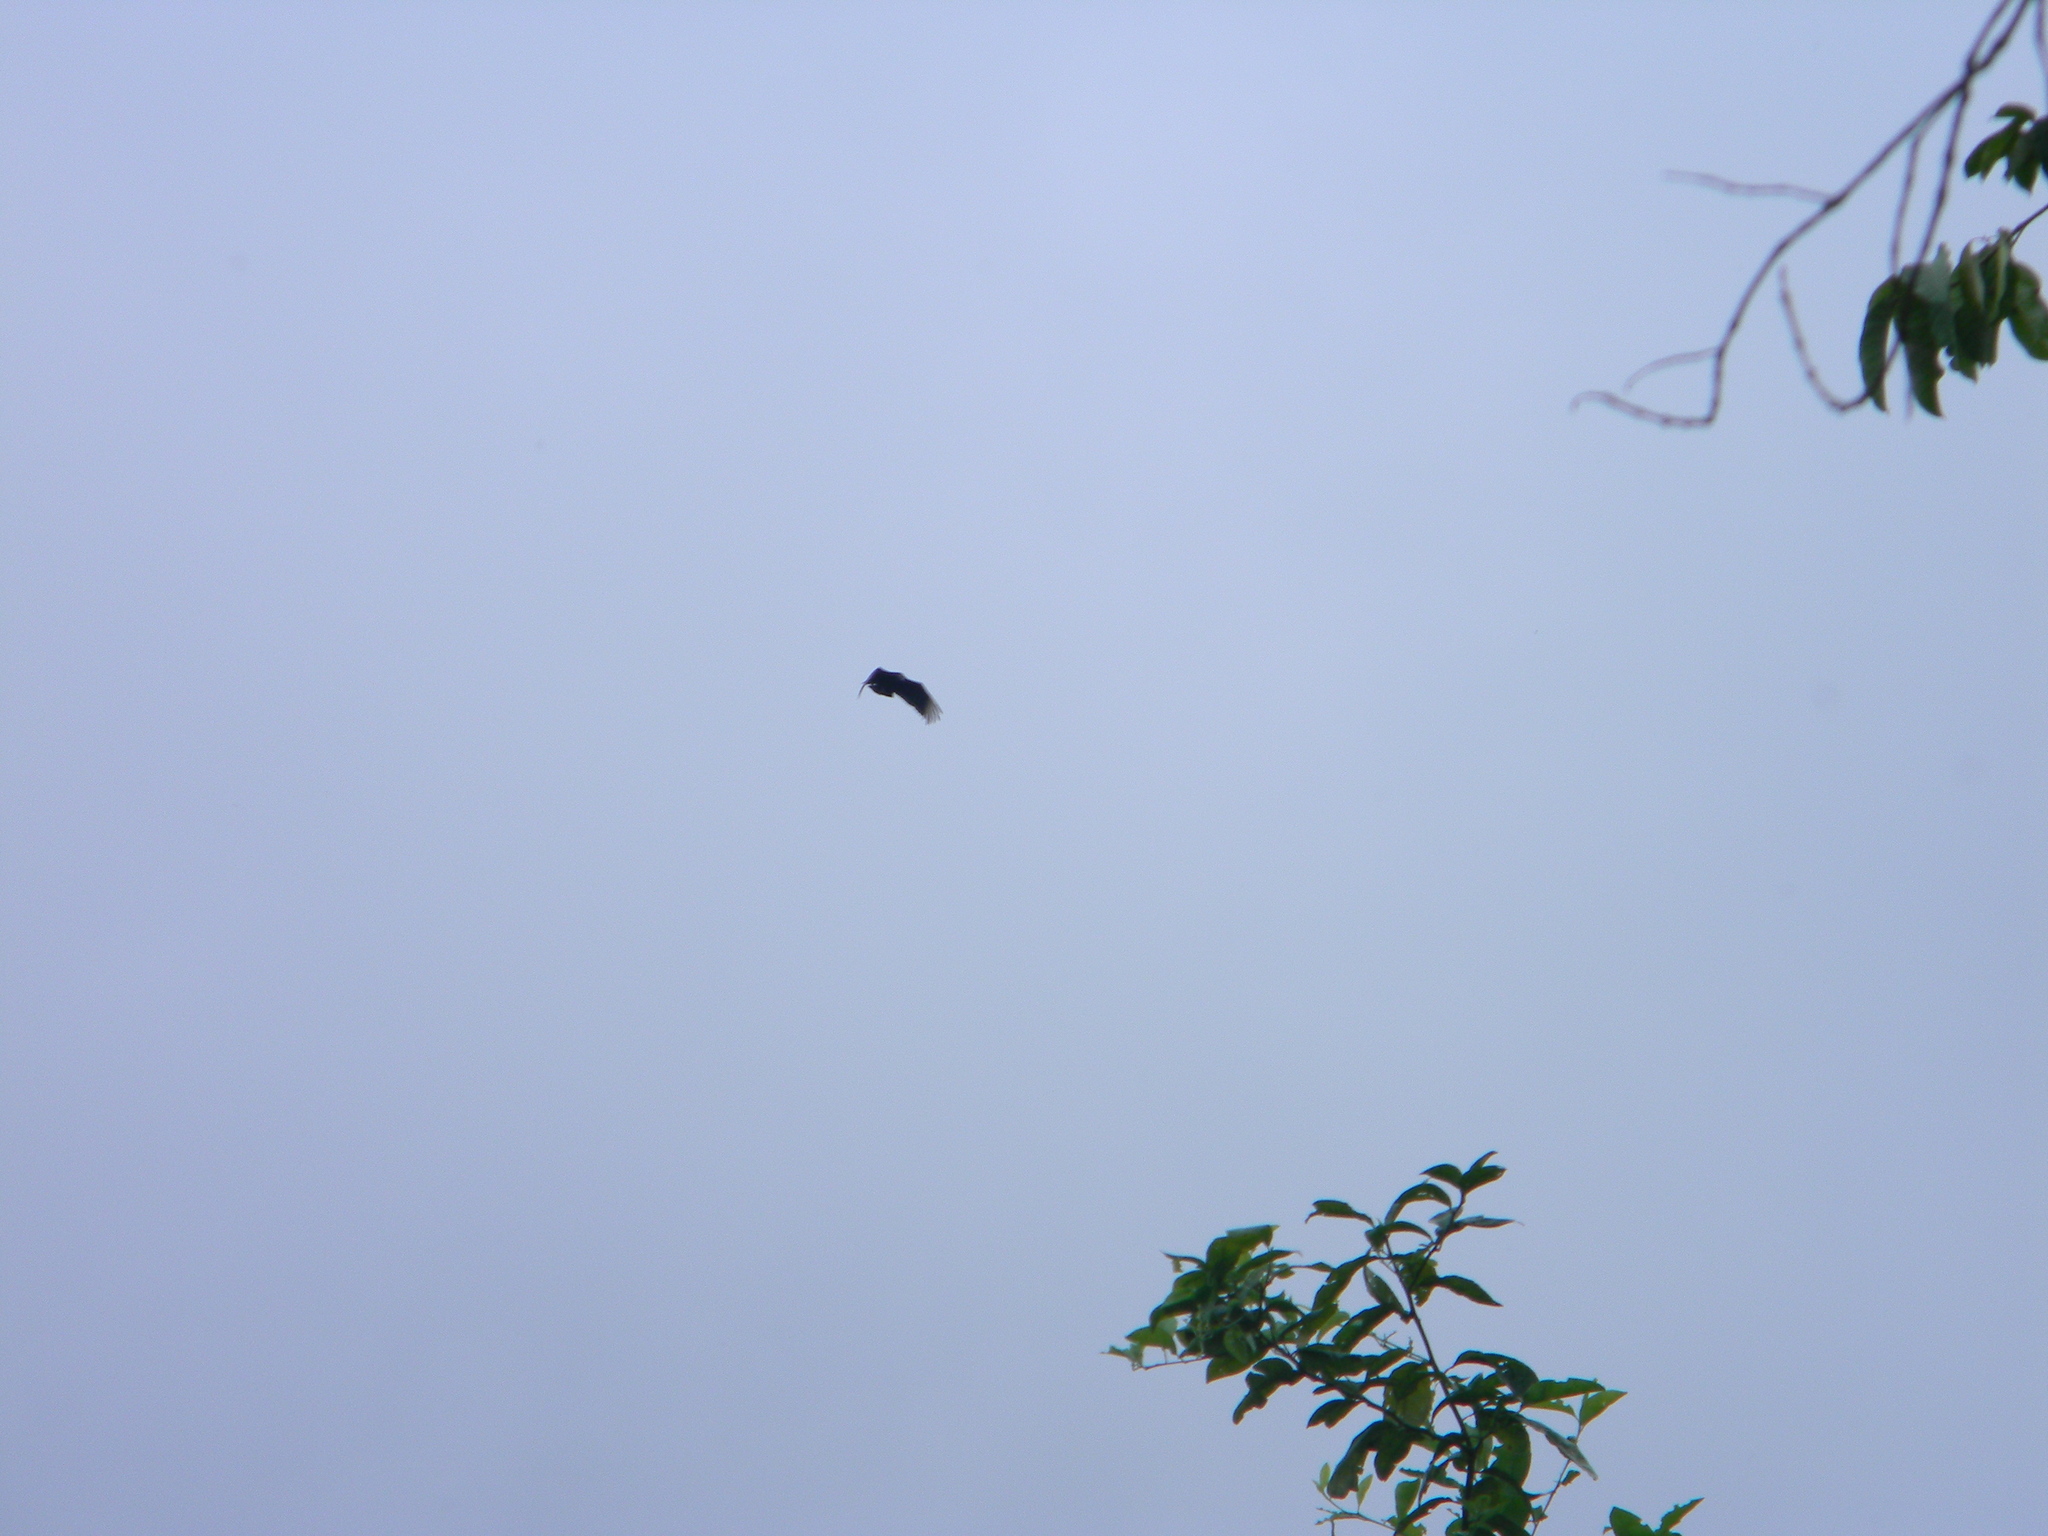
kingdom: Animalia
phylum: Chordata
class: Aves
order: Accipitriformes
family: Cathartidae
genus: Coragyps
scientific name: Coragyps atratus
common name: Black vulture
